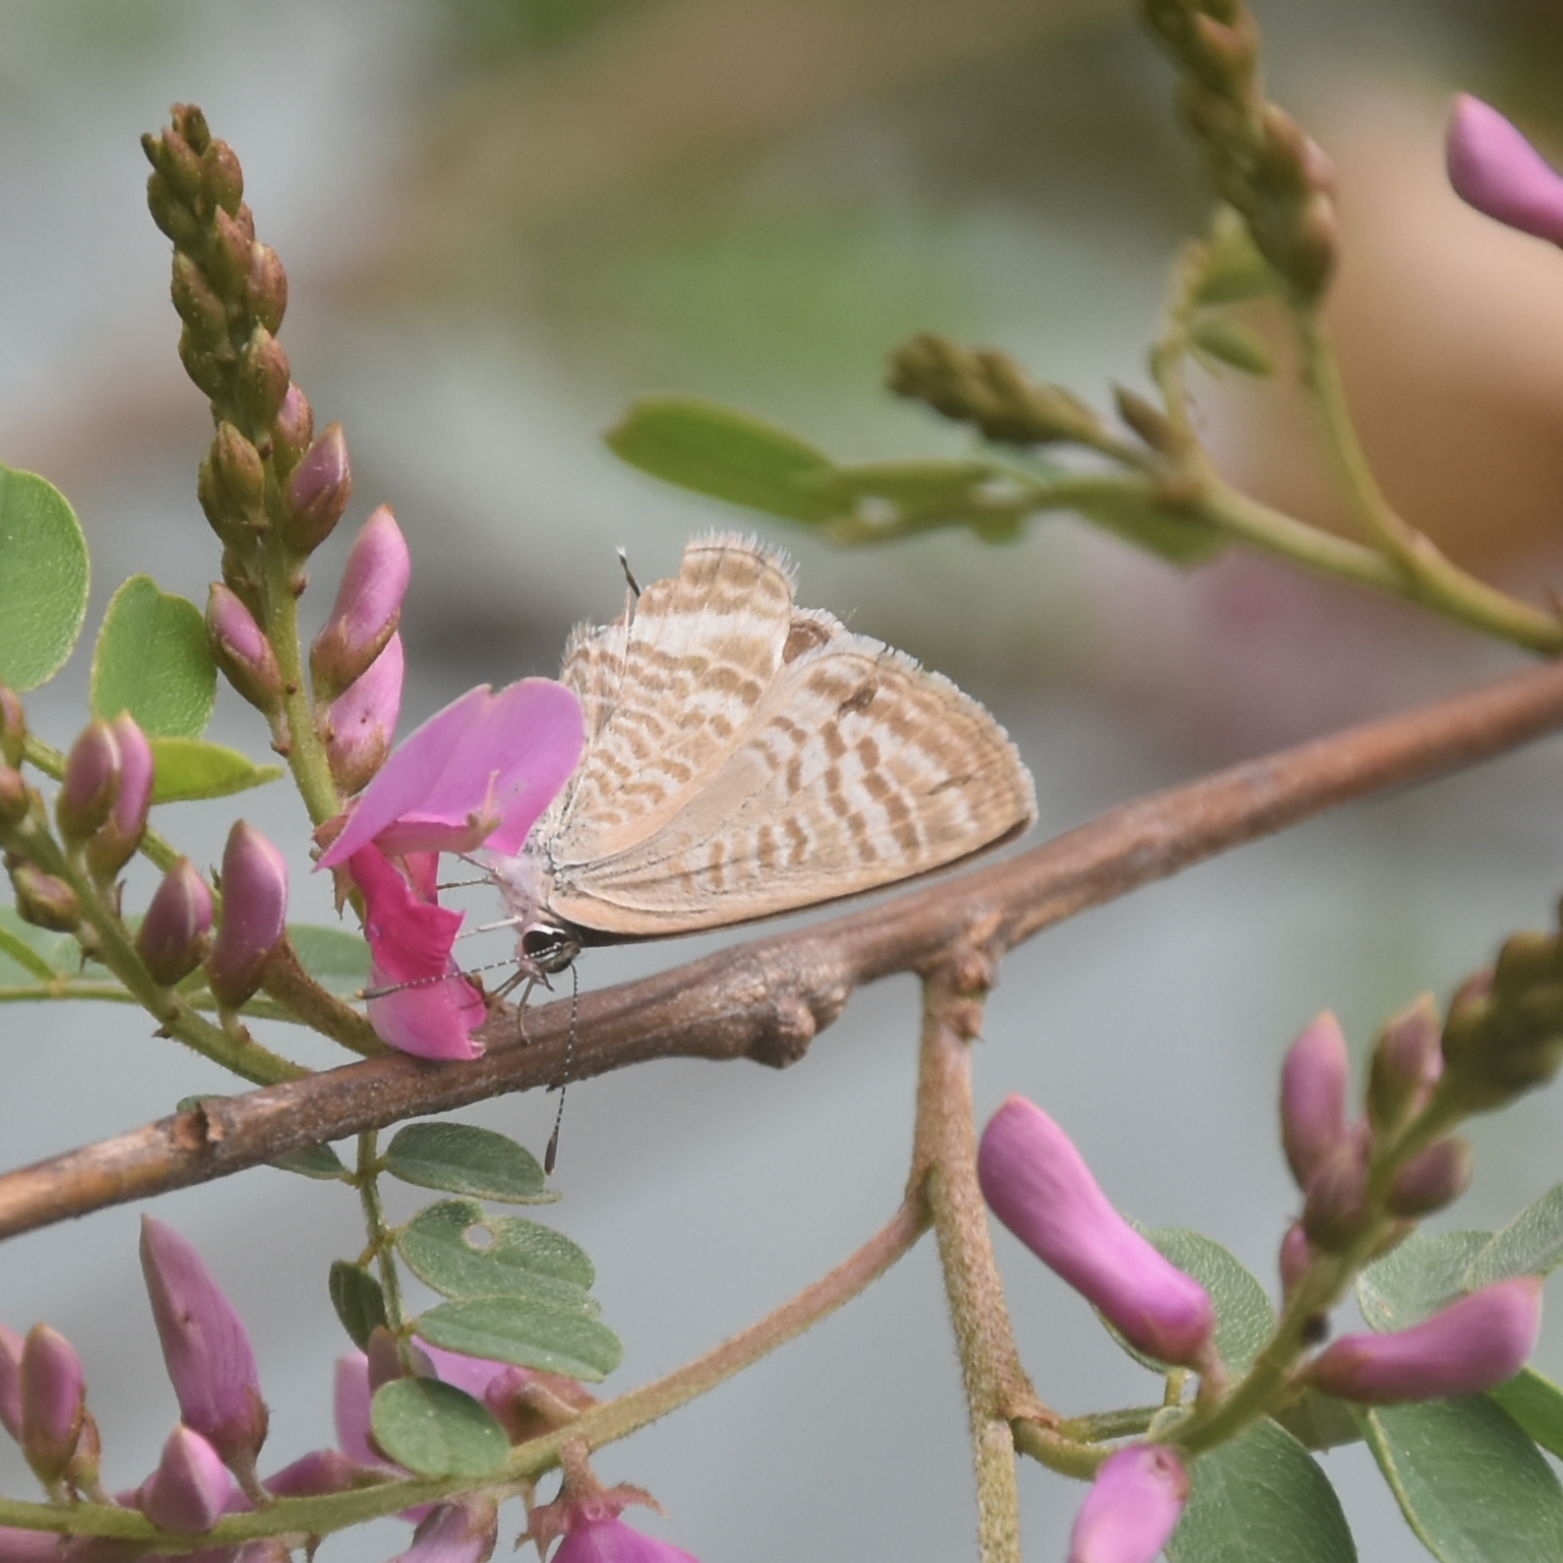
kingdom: Animalia
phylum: Arthropoda
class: Insecta
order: Lepidoptera
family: Lycaenidae
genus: Lampides
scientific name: Lampides boeticus
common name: Long-tailed blue
